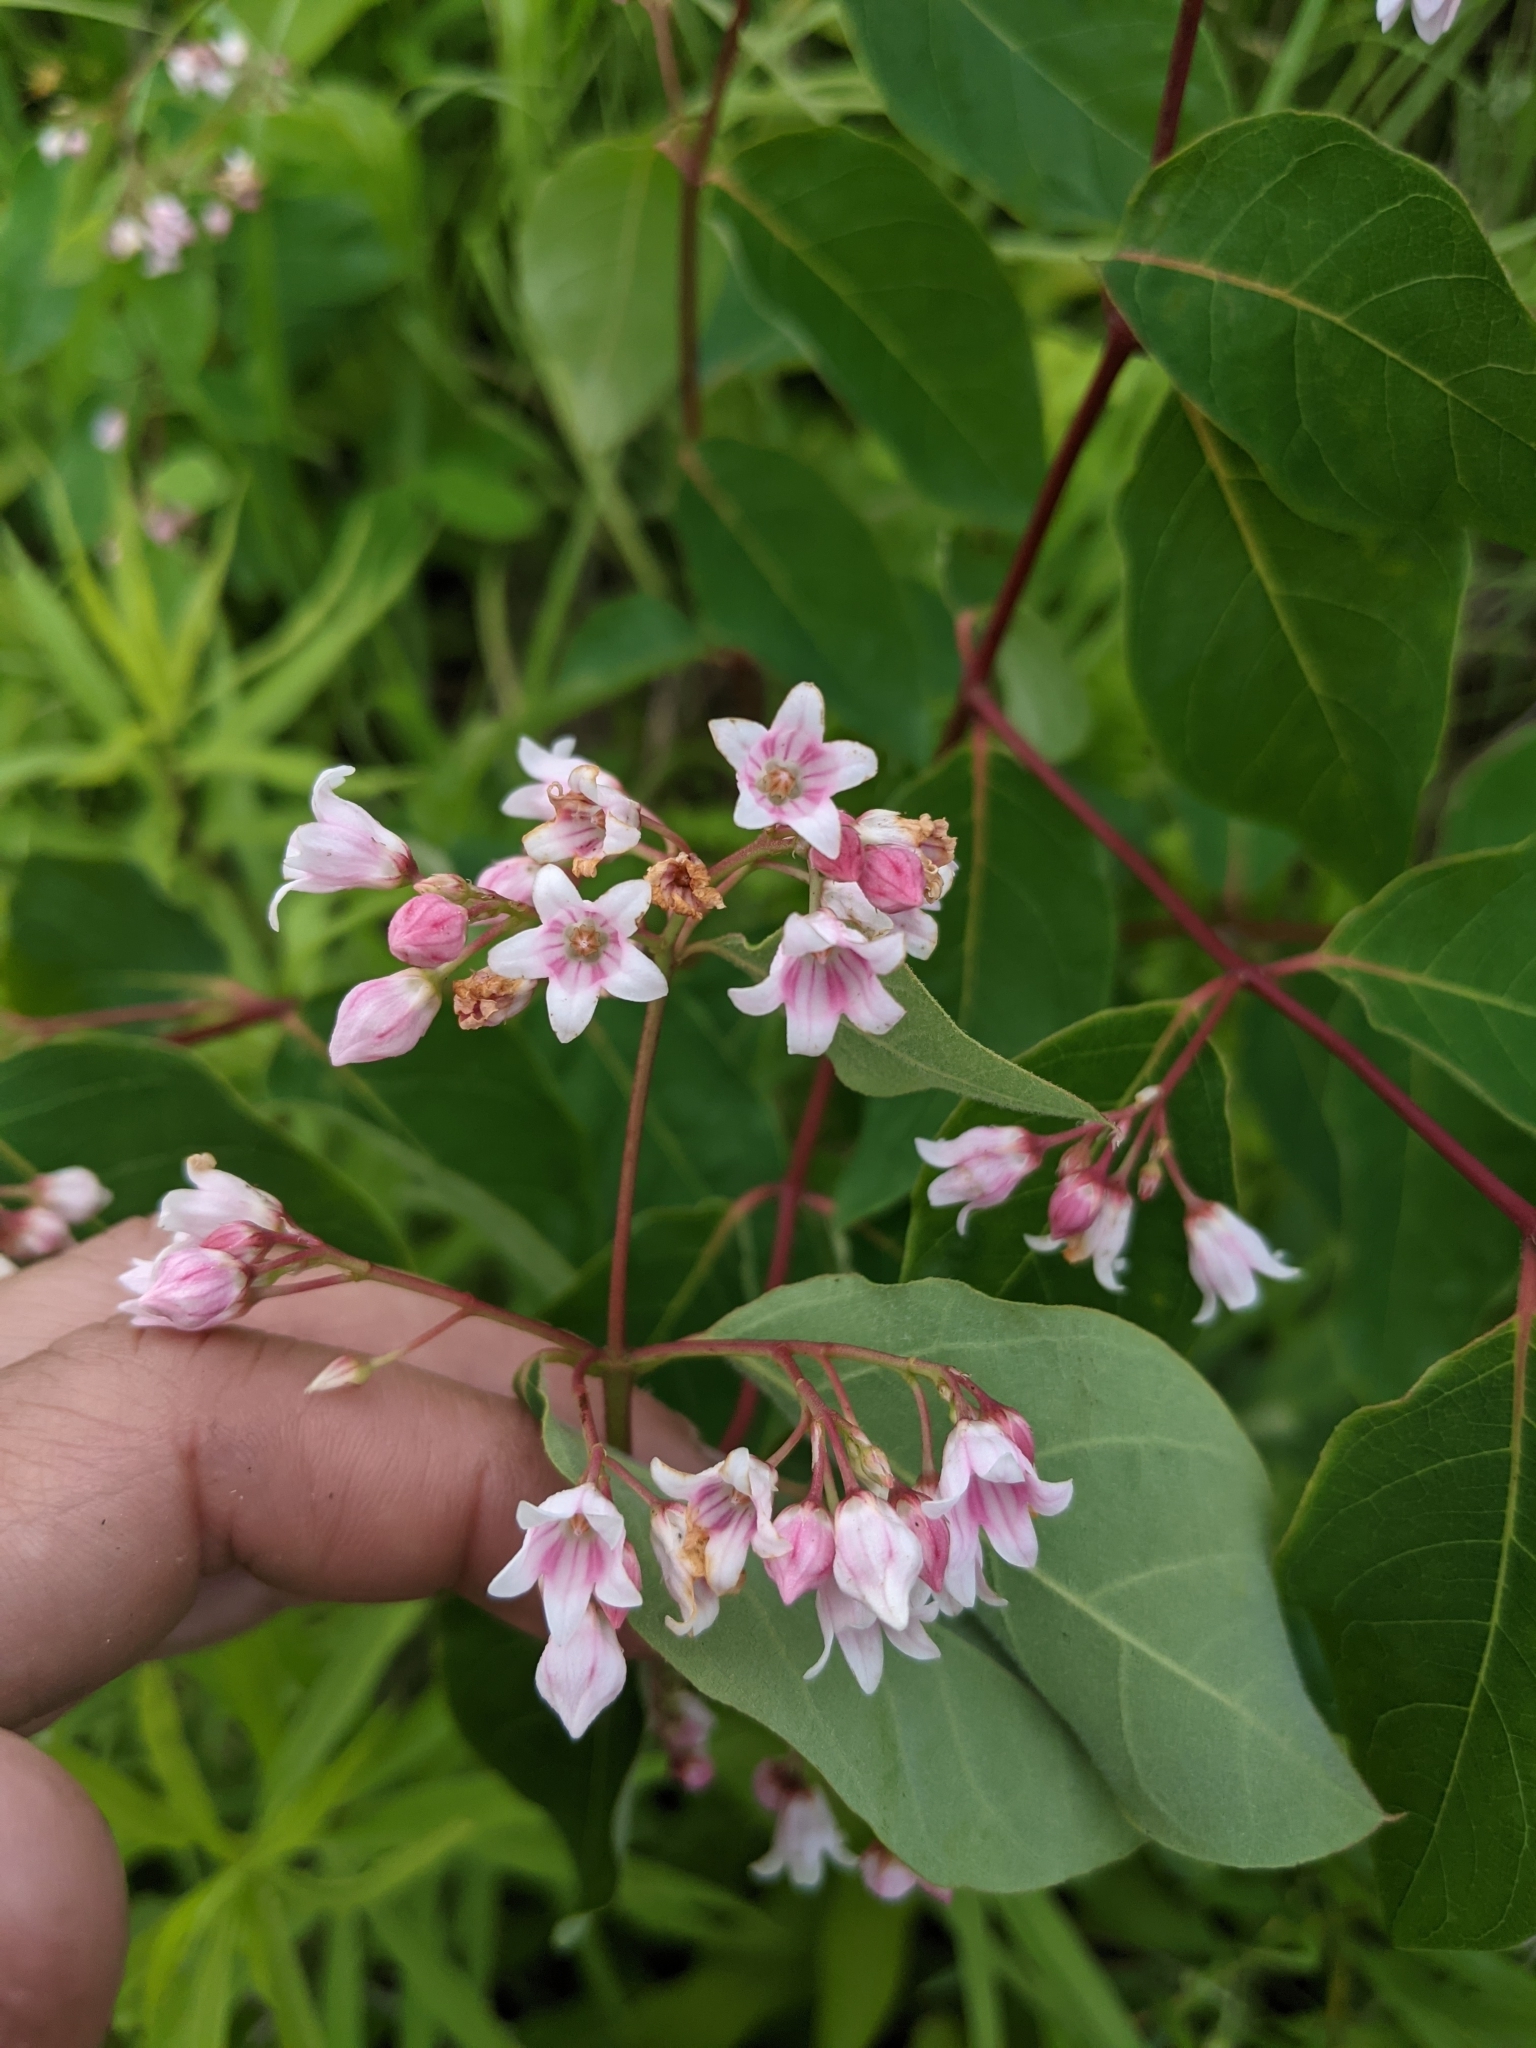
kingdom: Plantae
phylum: Tracheophyta
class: Magnoliopsida
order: Gentianales
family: Apocynaceae
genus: Apocynum
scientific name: Apocynum androsaemifolium
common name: Spreading dogbane
